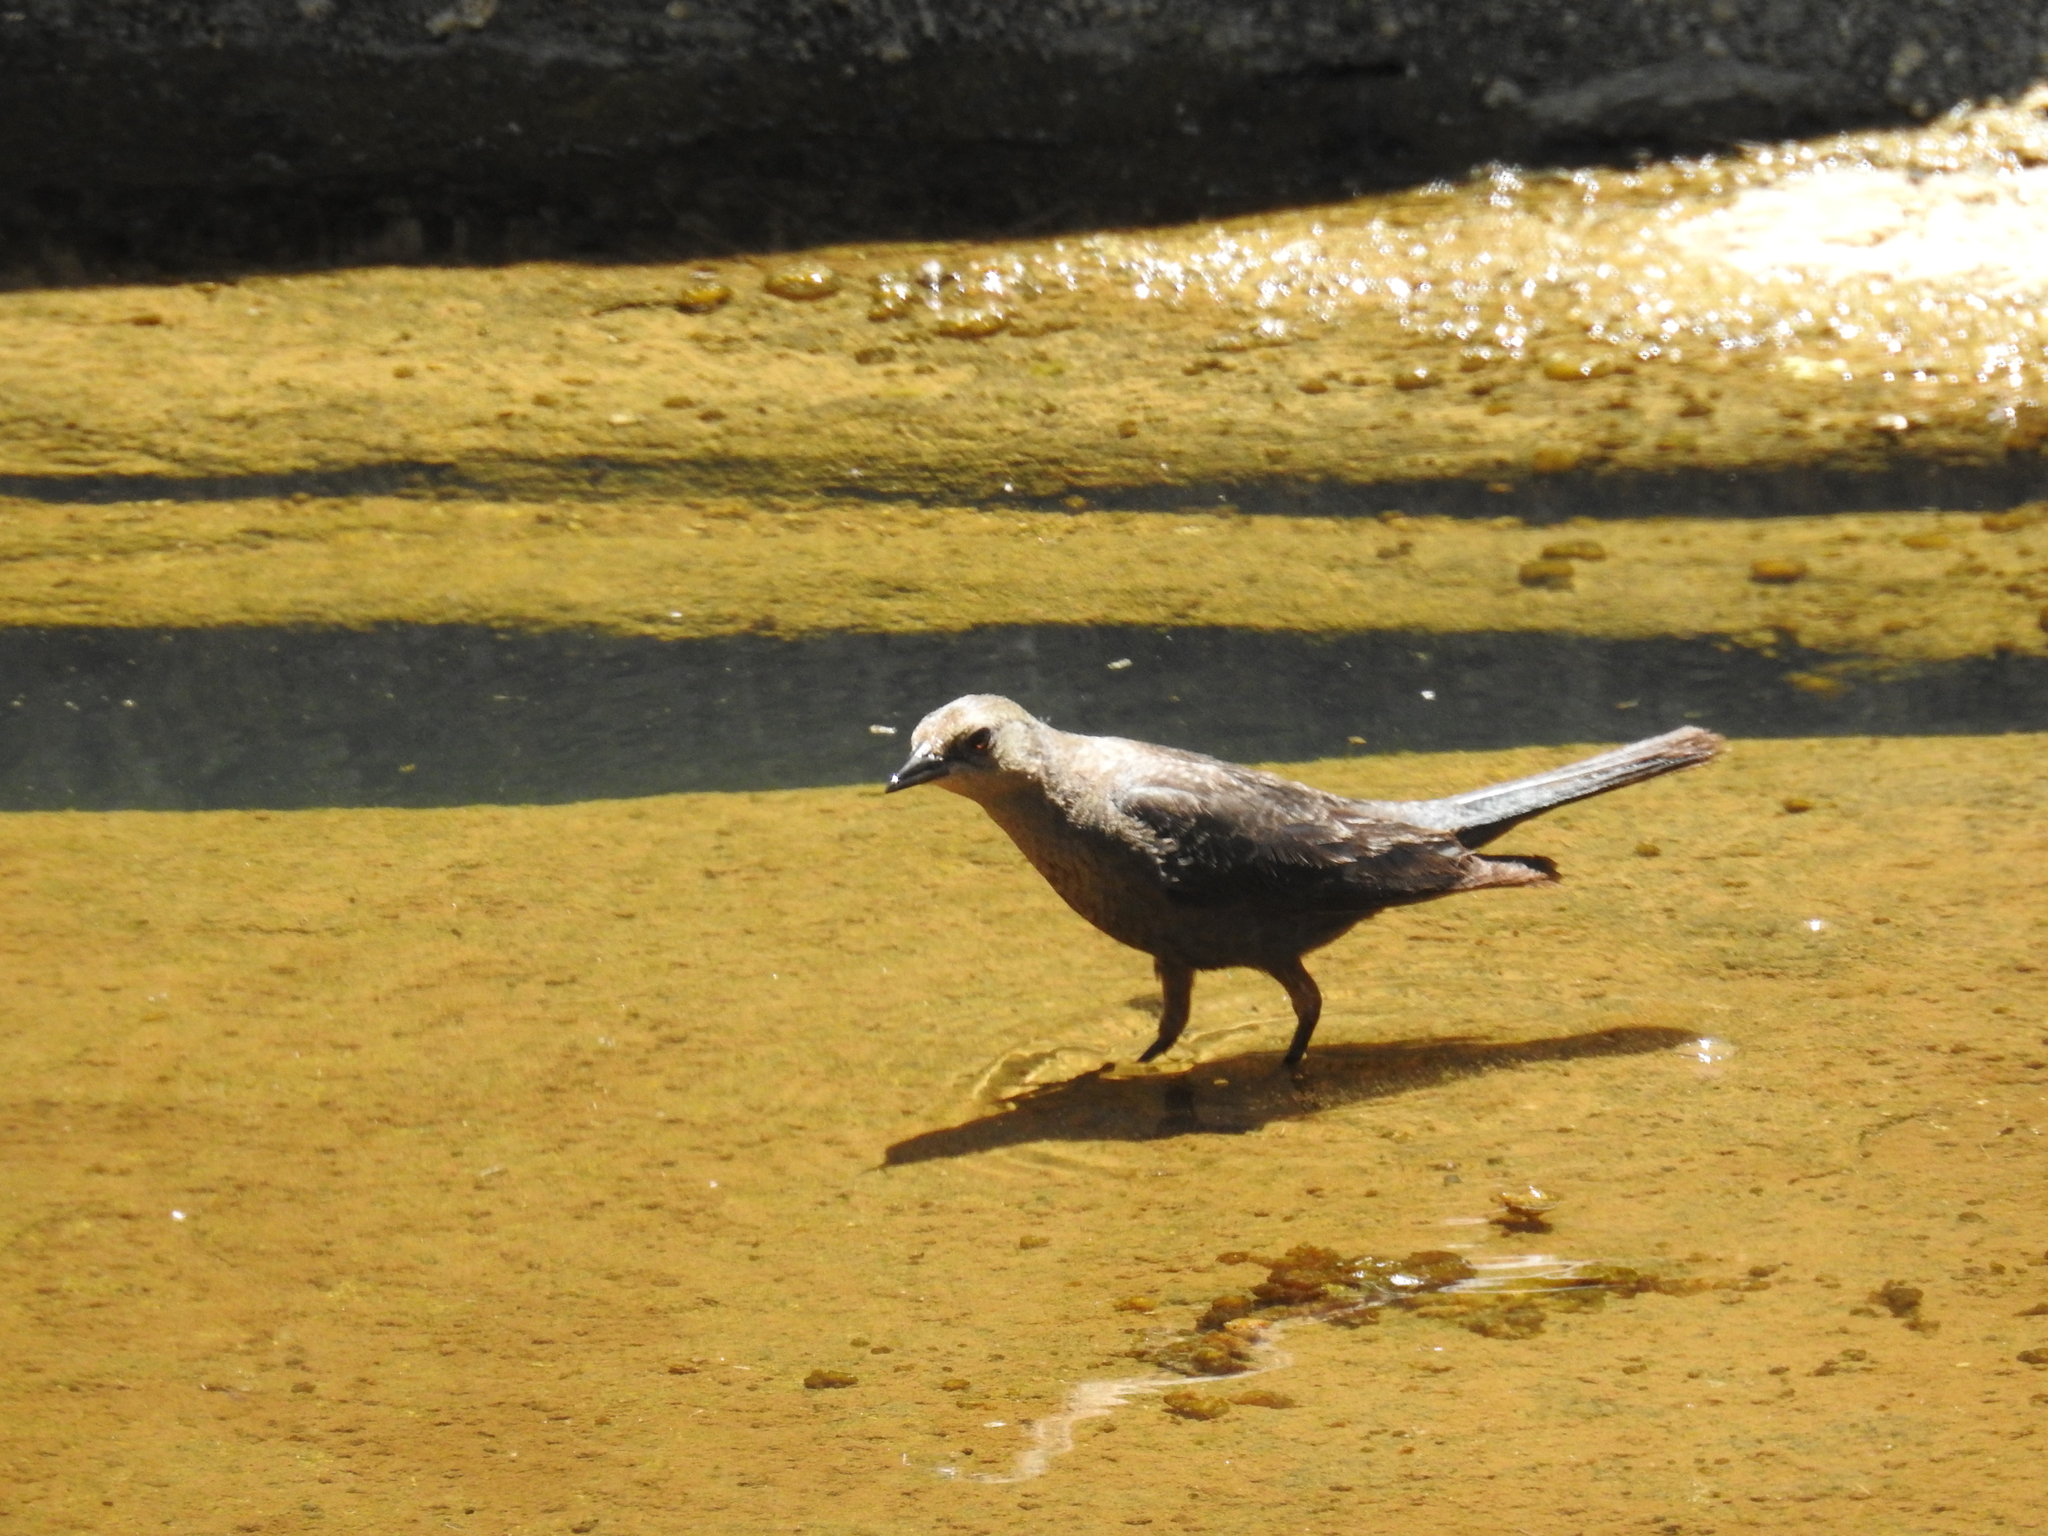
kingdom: Animalia
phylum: Chordata
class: Aves
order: Passeriformes
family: Icteridae
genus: Euphagus
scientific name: Euphagus cyanocephalus
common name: Brewer's blackbird
